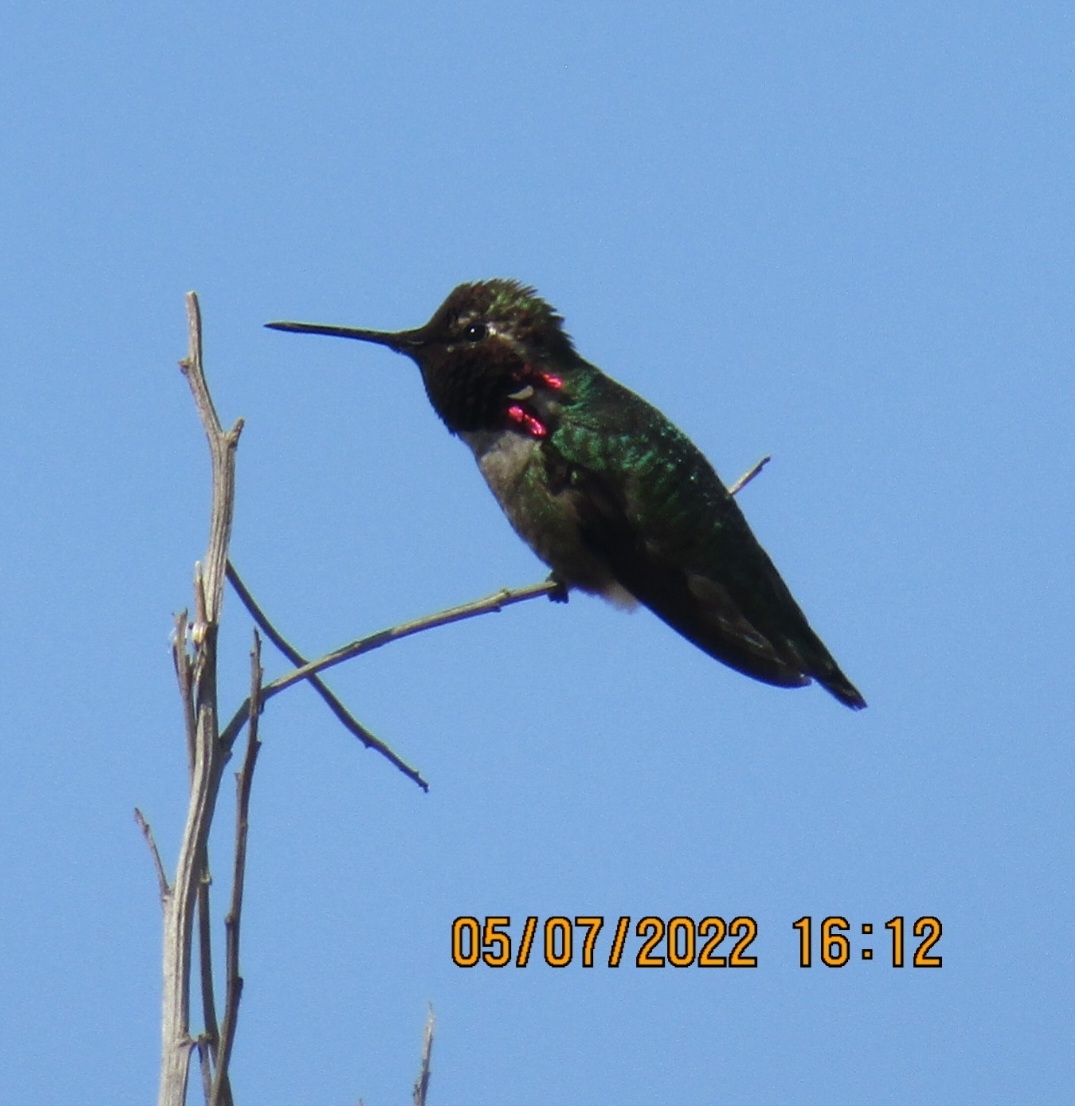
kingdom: Animalia
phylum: Chordata
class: Aves
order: Apodiformes
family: Trochilidae
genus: Calypte
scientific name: Calypte anna
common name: Anna's hummingbird
